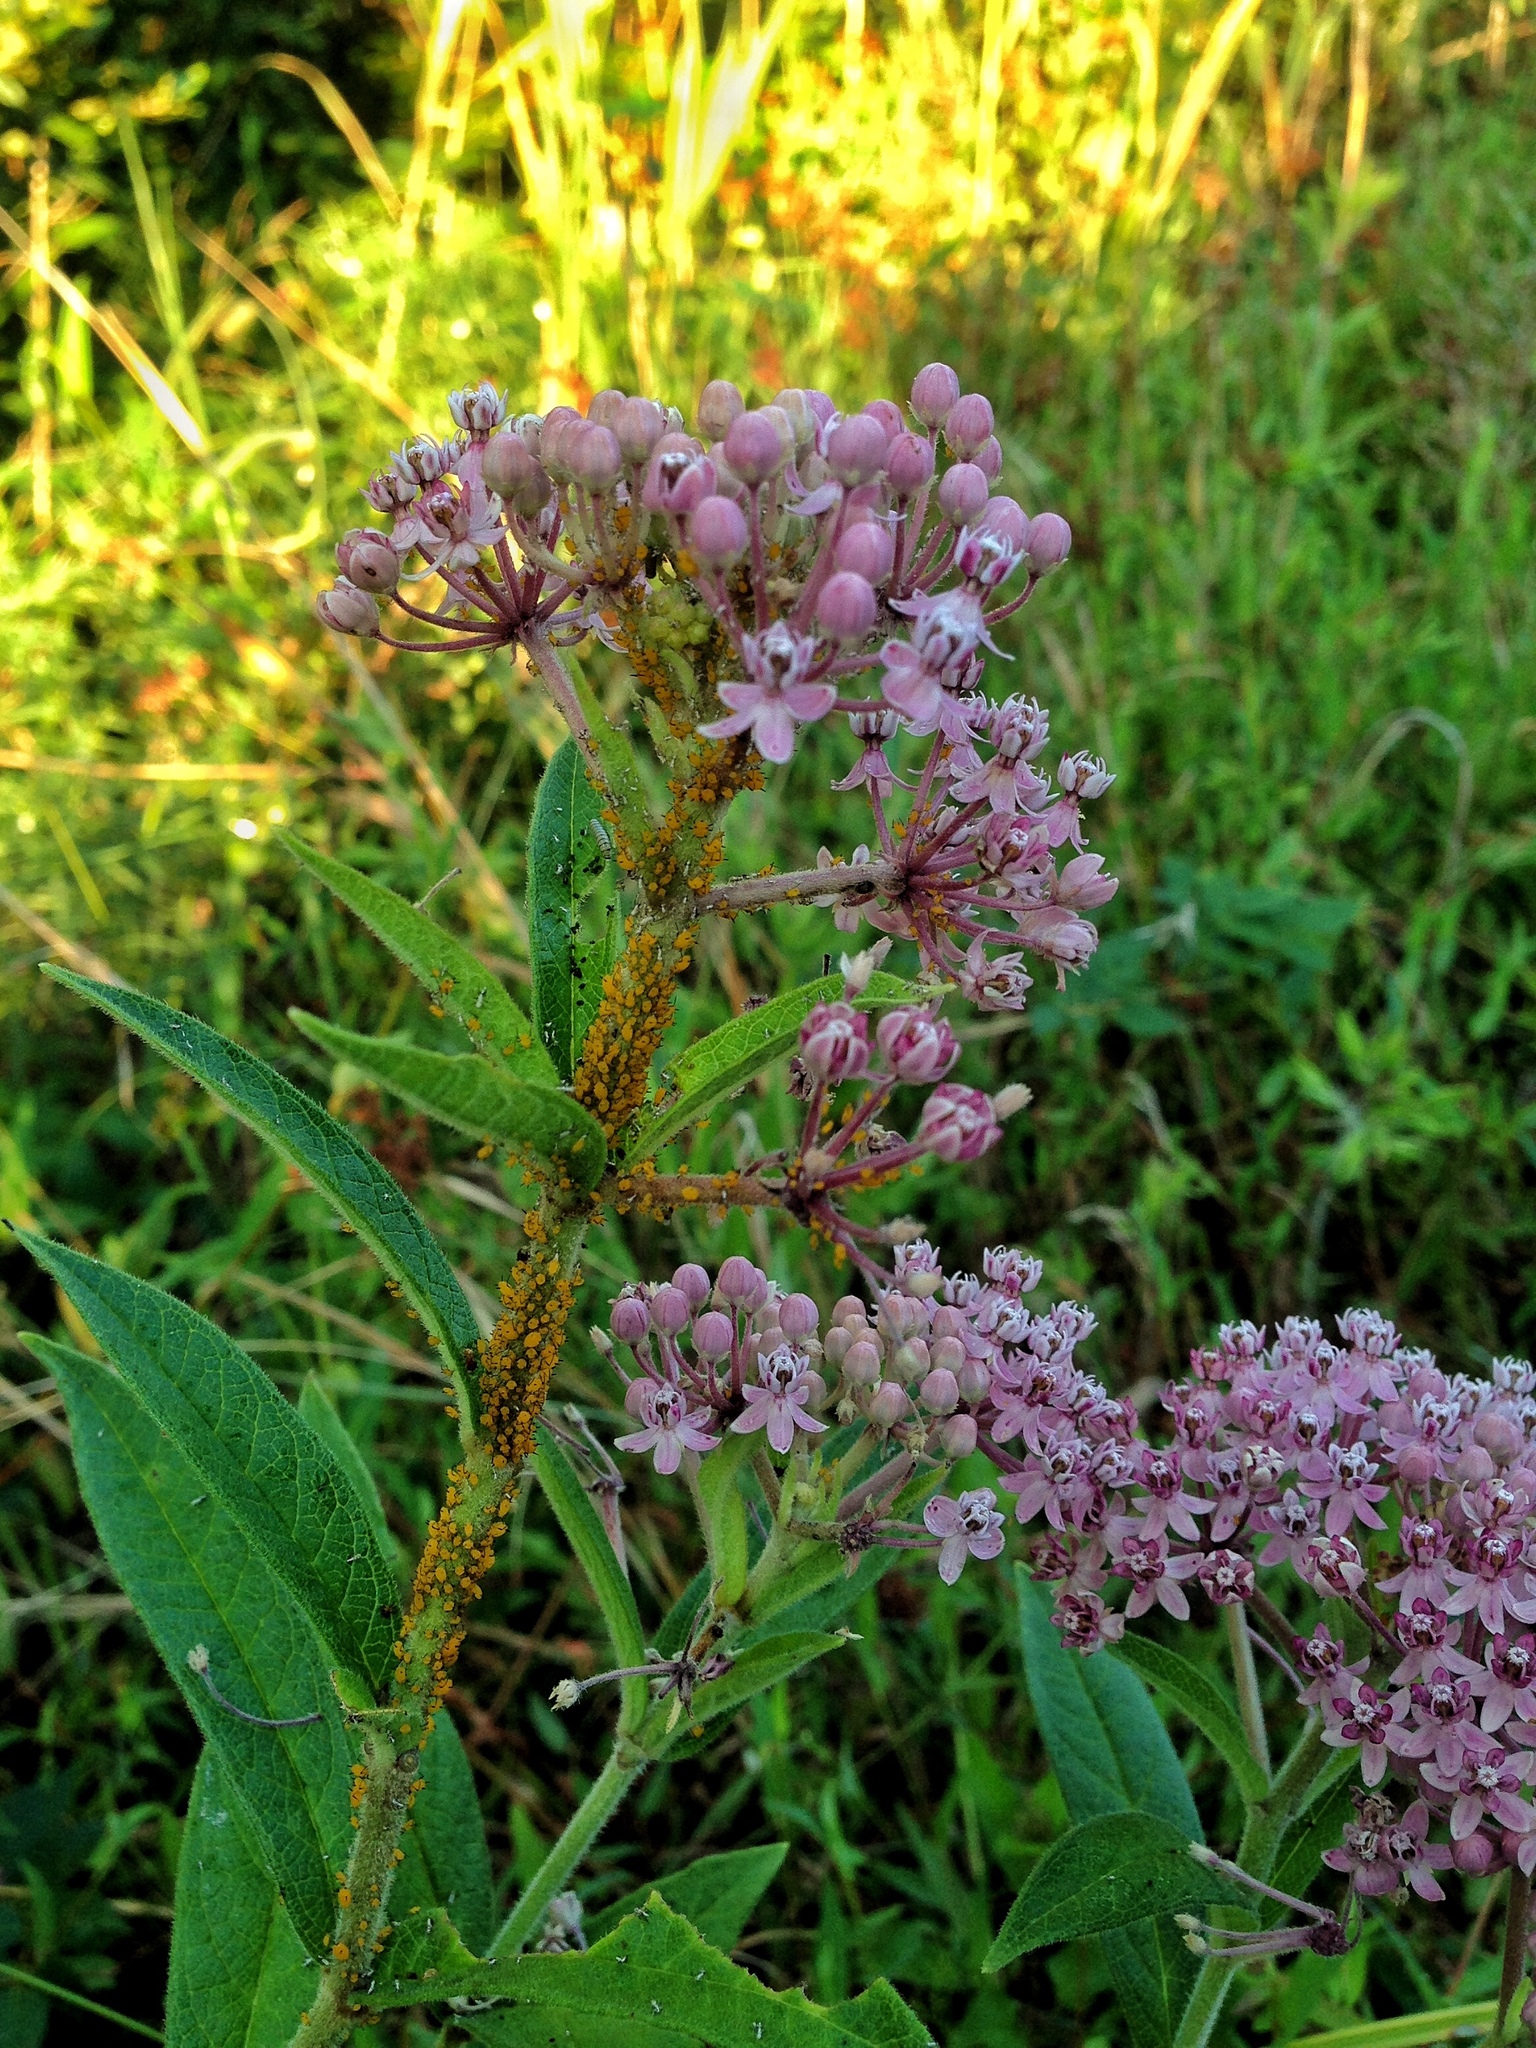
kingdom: Plantae
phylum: Tracheophyta
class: Magnoliopsida
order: Gentianales
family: Apocynaceae
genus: Asclepias
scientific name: Asclepias incarnata
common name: Swamp milkweed
